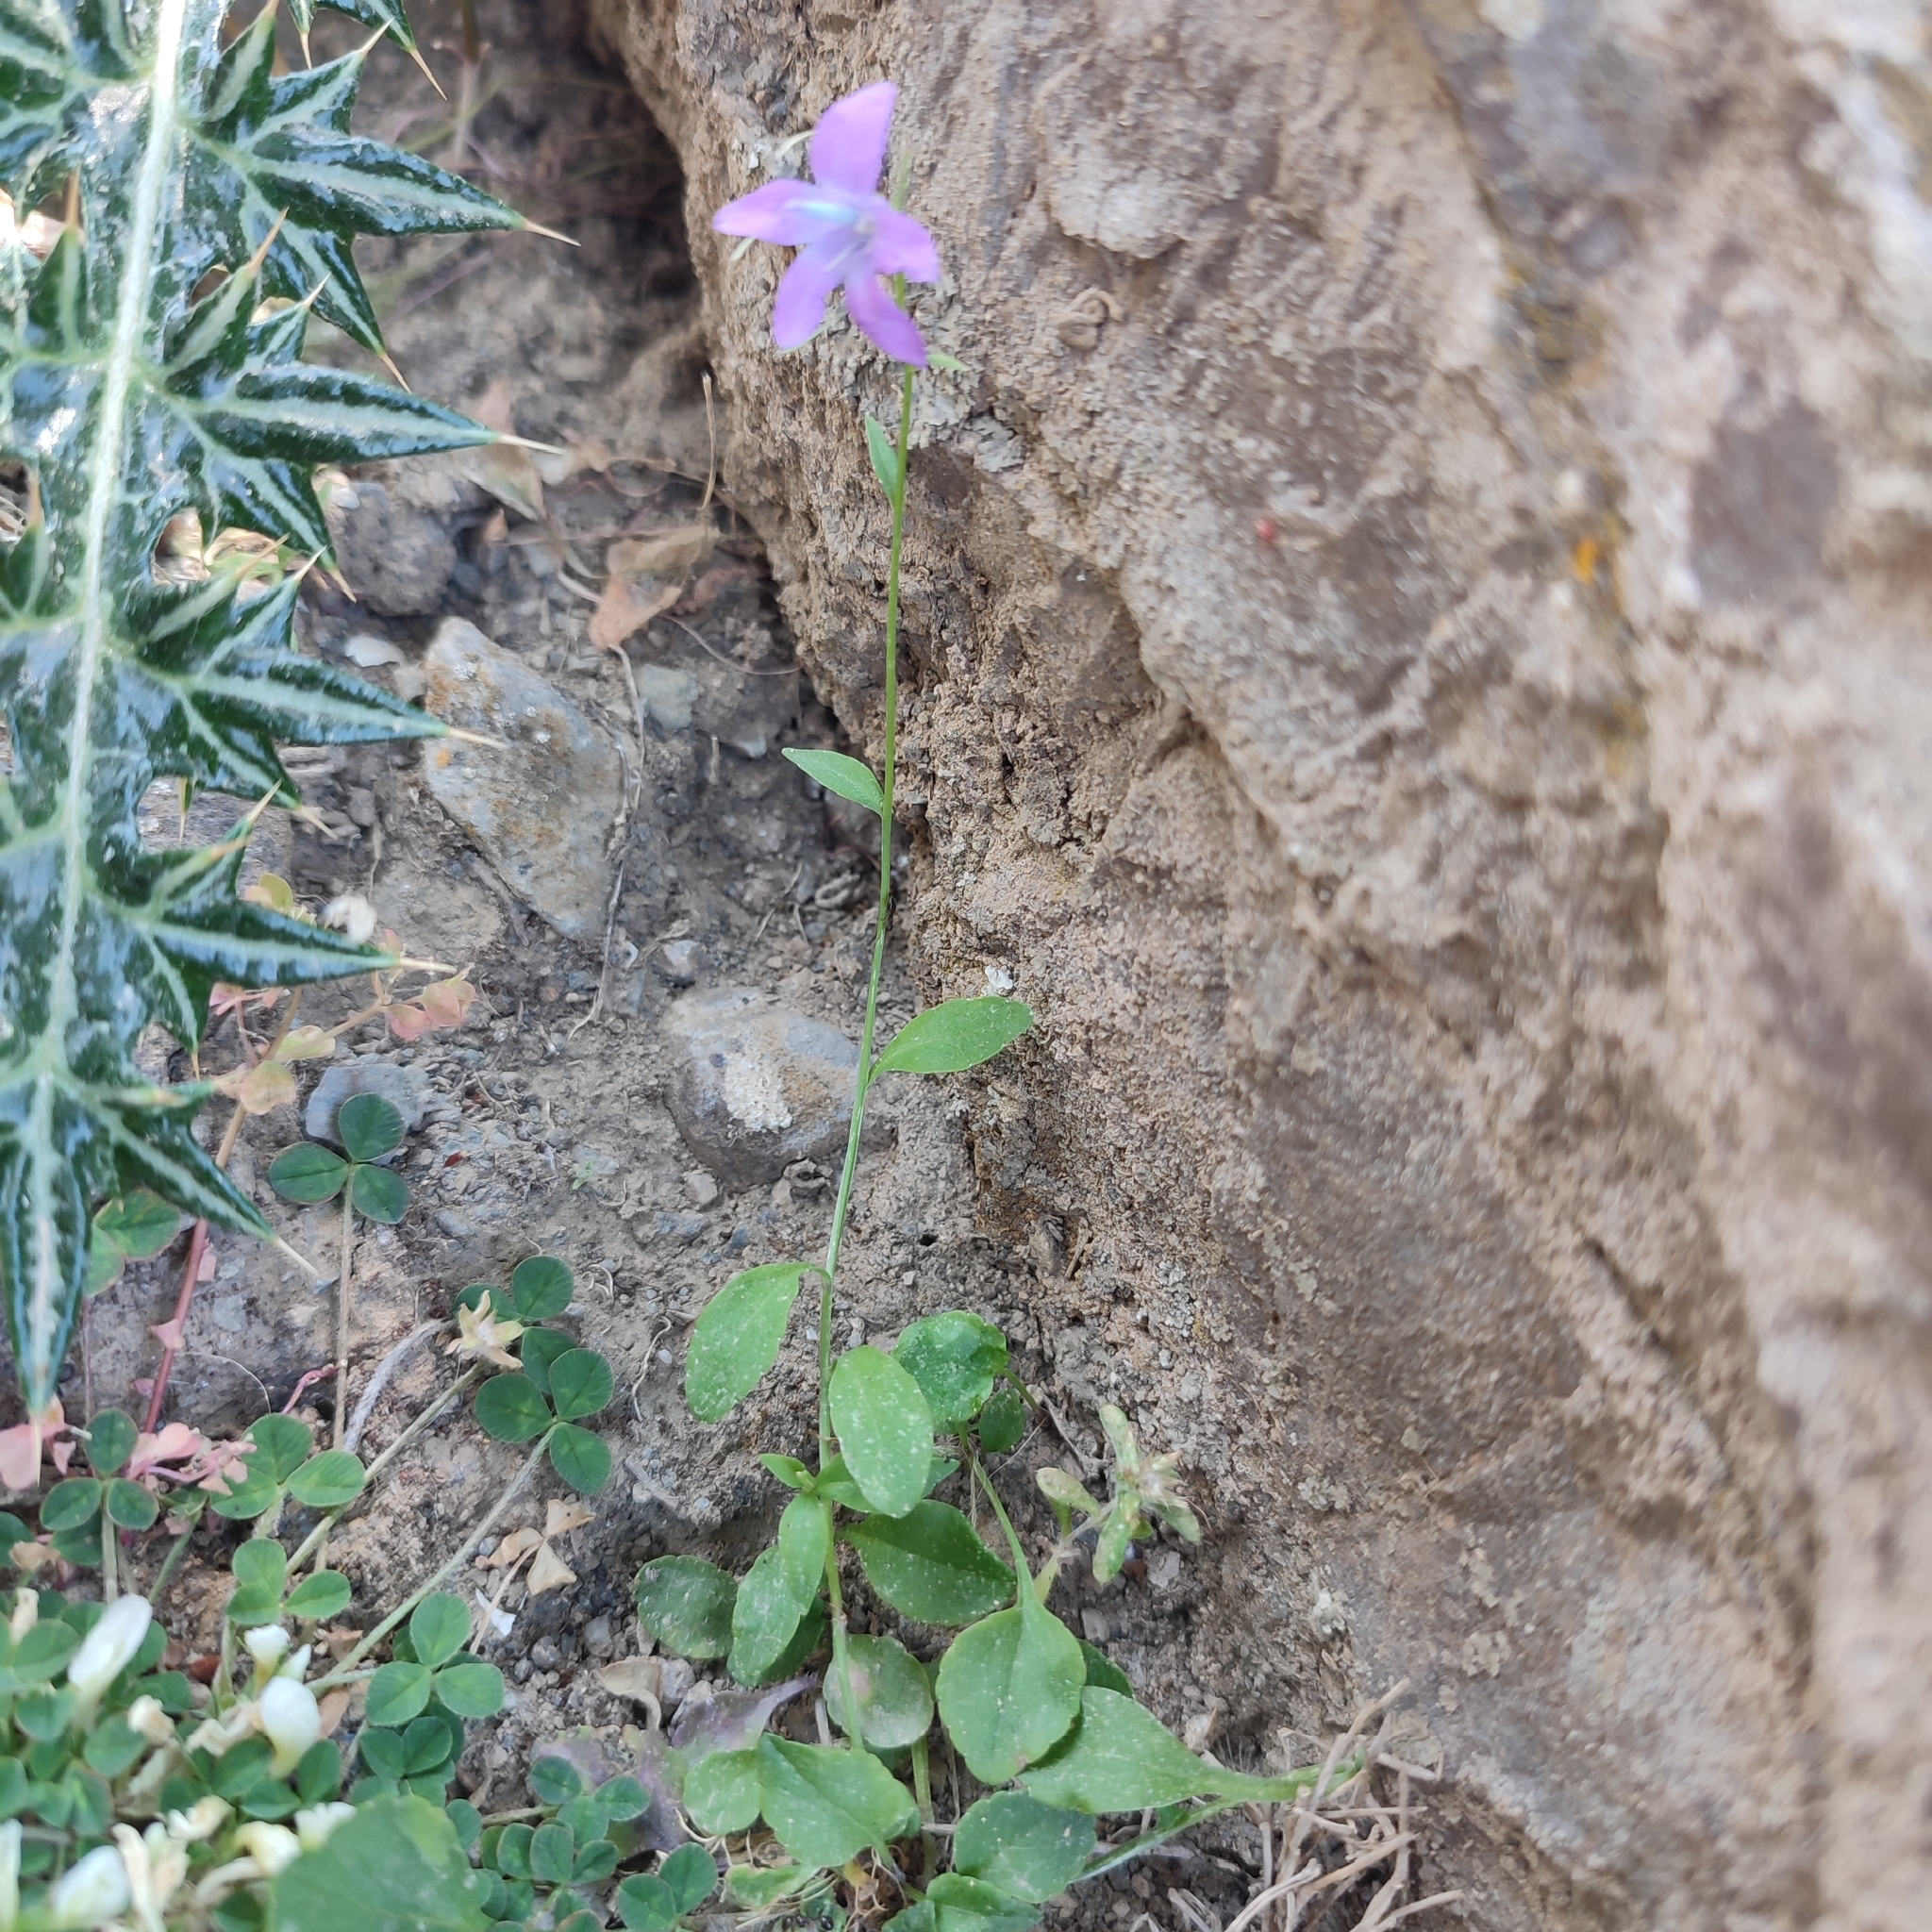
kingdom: Plantae
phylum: Tracheophyta
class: Magnoliopsida
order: Asterales
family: Campanulaceae
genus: Campanula
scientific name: Campanula spatulata
